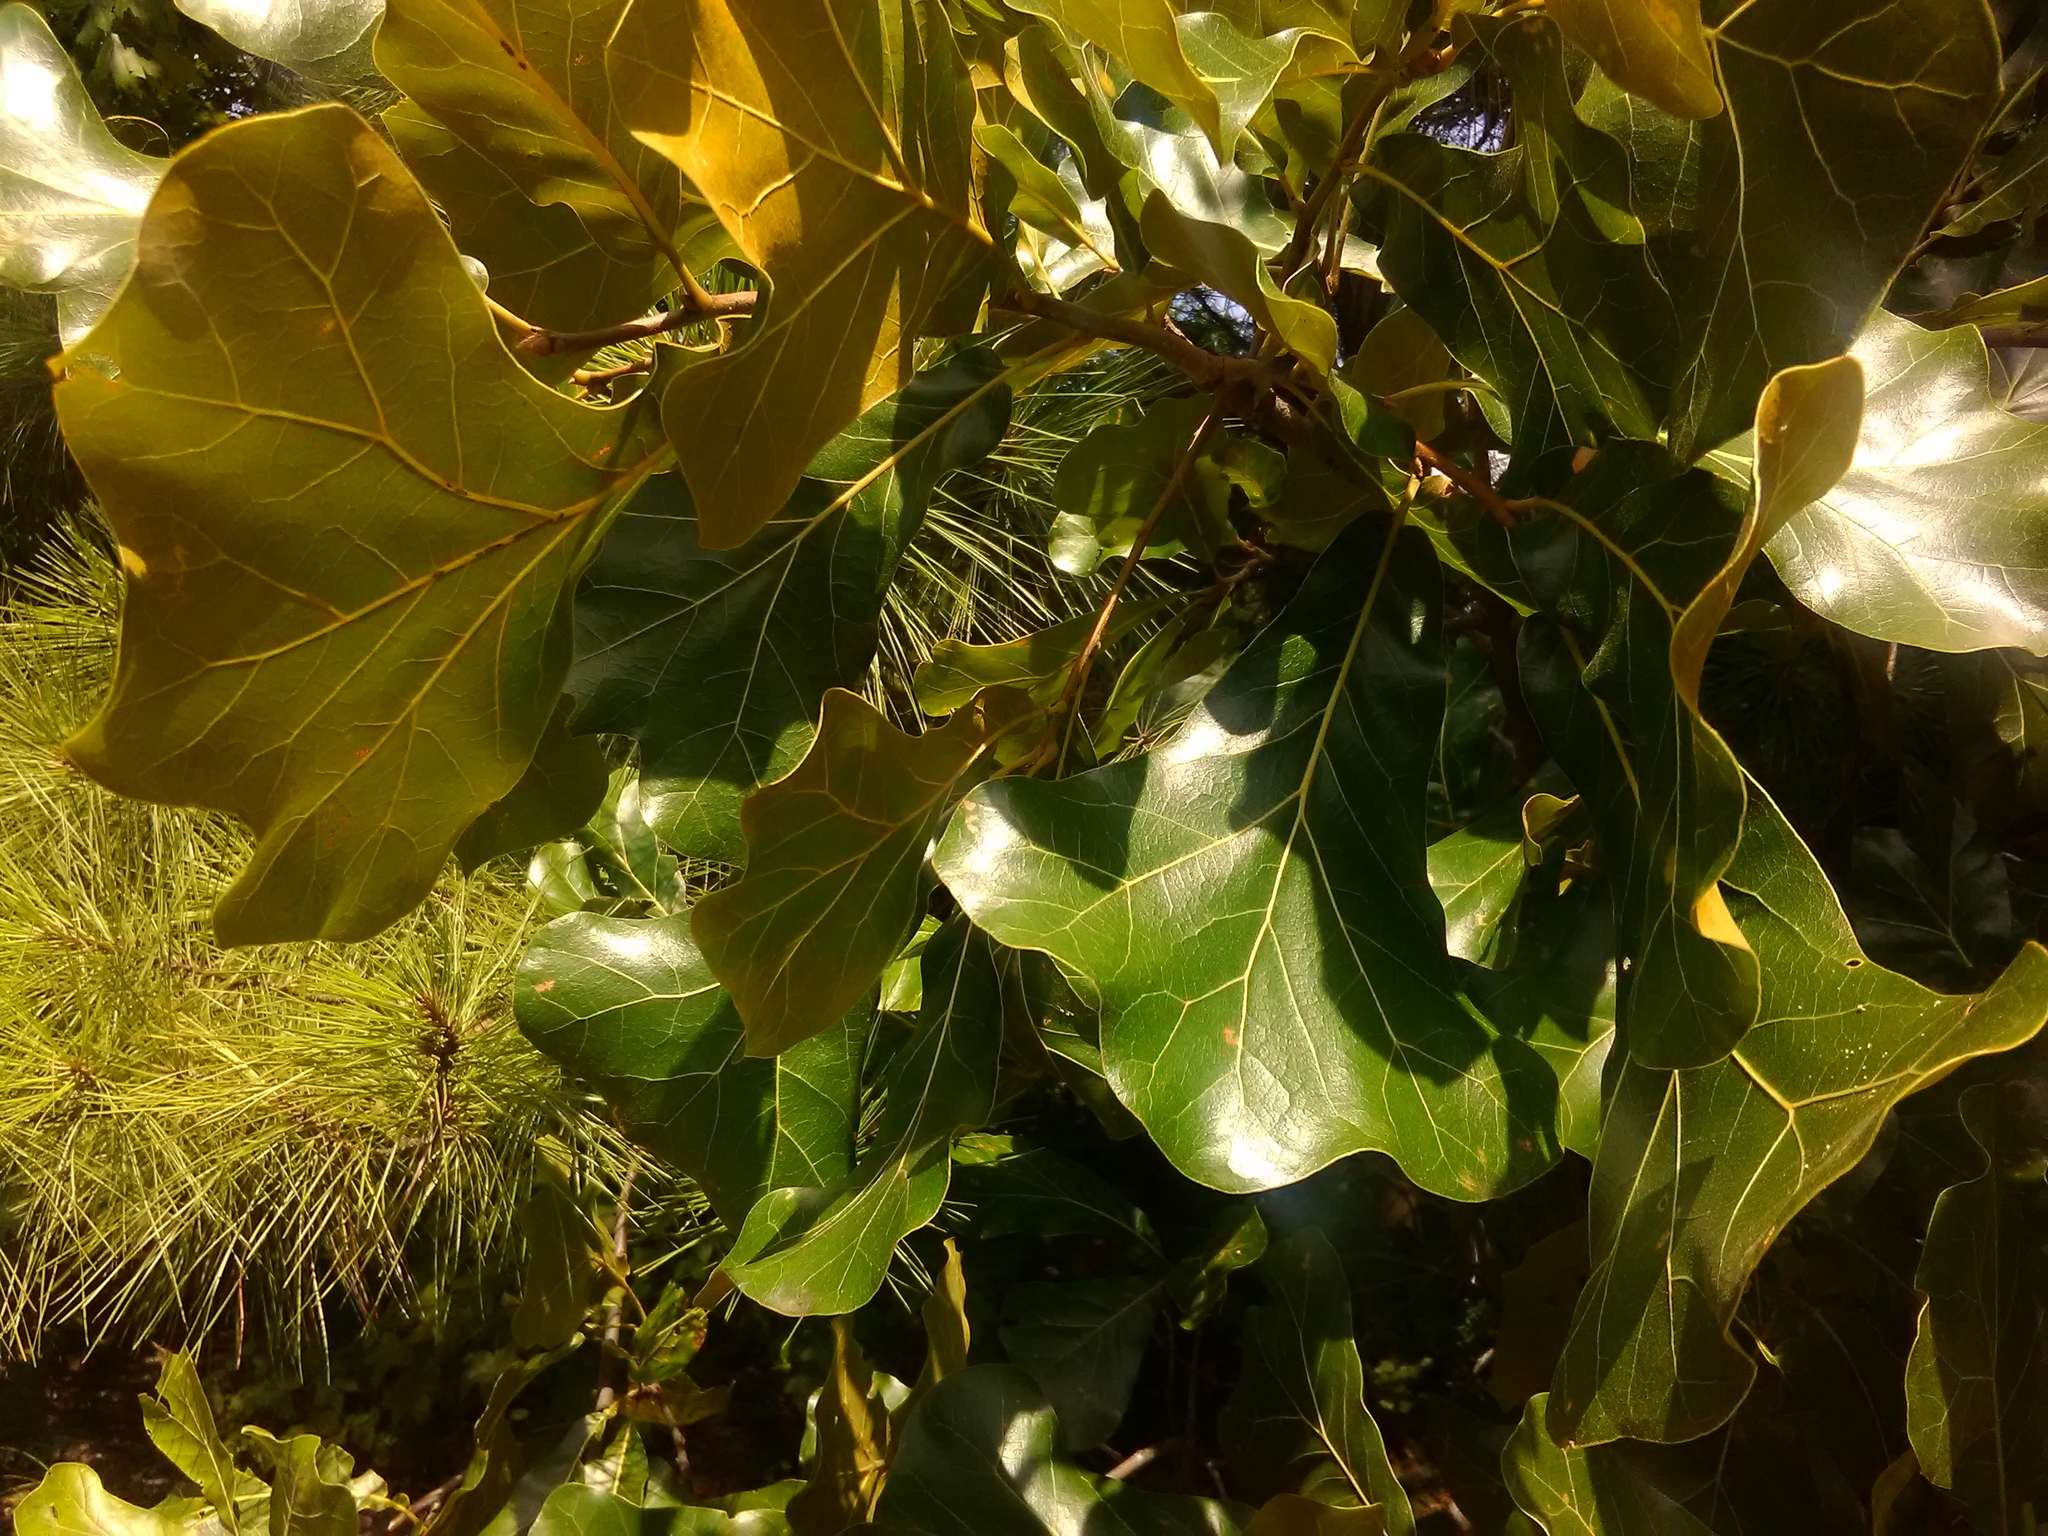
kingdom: Plantae
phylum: Tracheophyta
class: Magnoliopsida
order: Fagales
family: Fagaceae
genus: Quercus
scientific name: Quercus marilandica
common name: Blackjack oak
